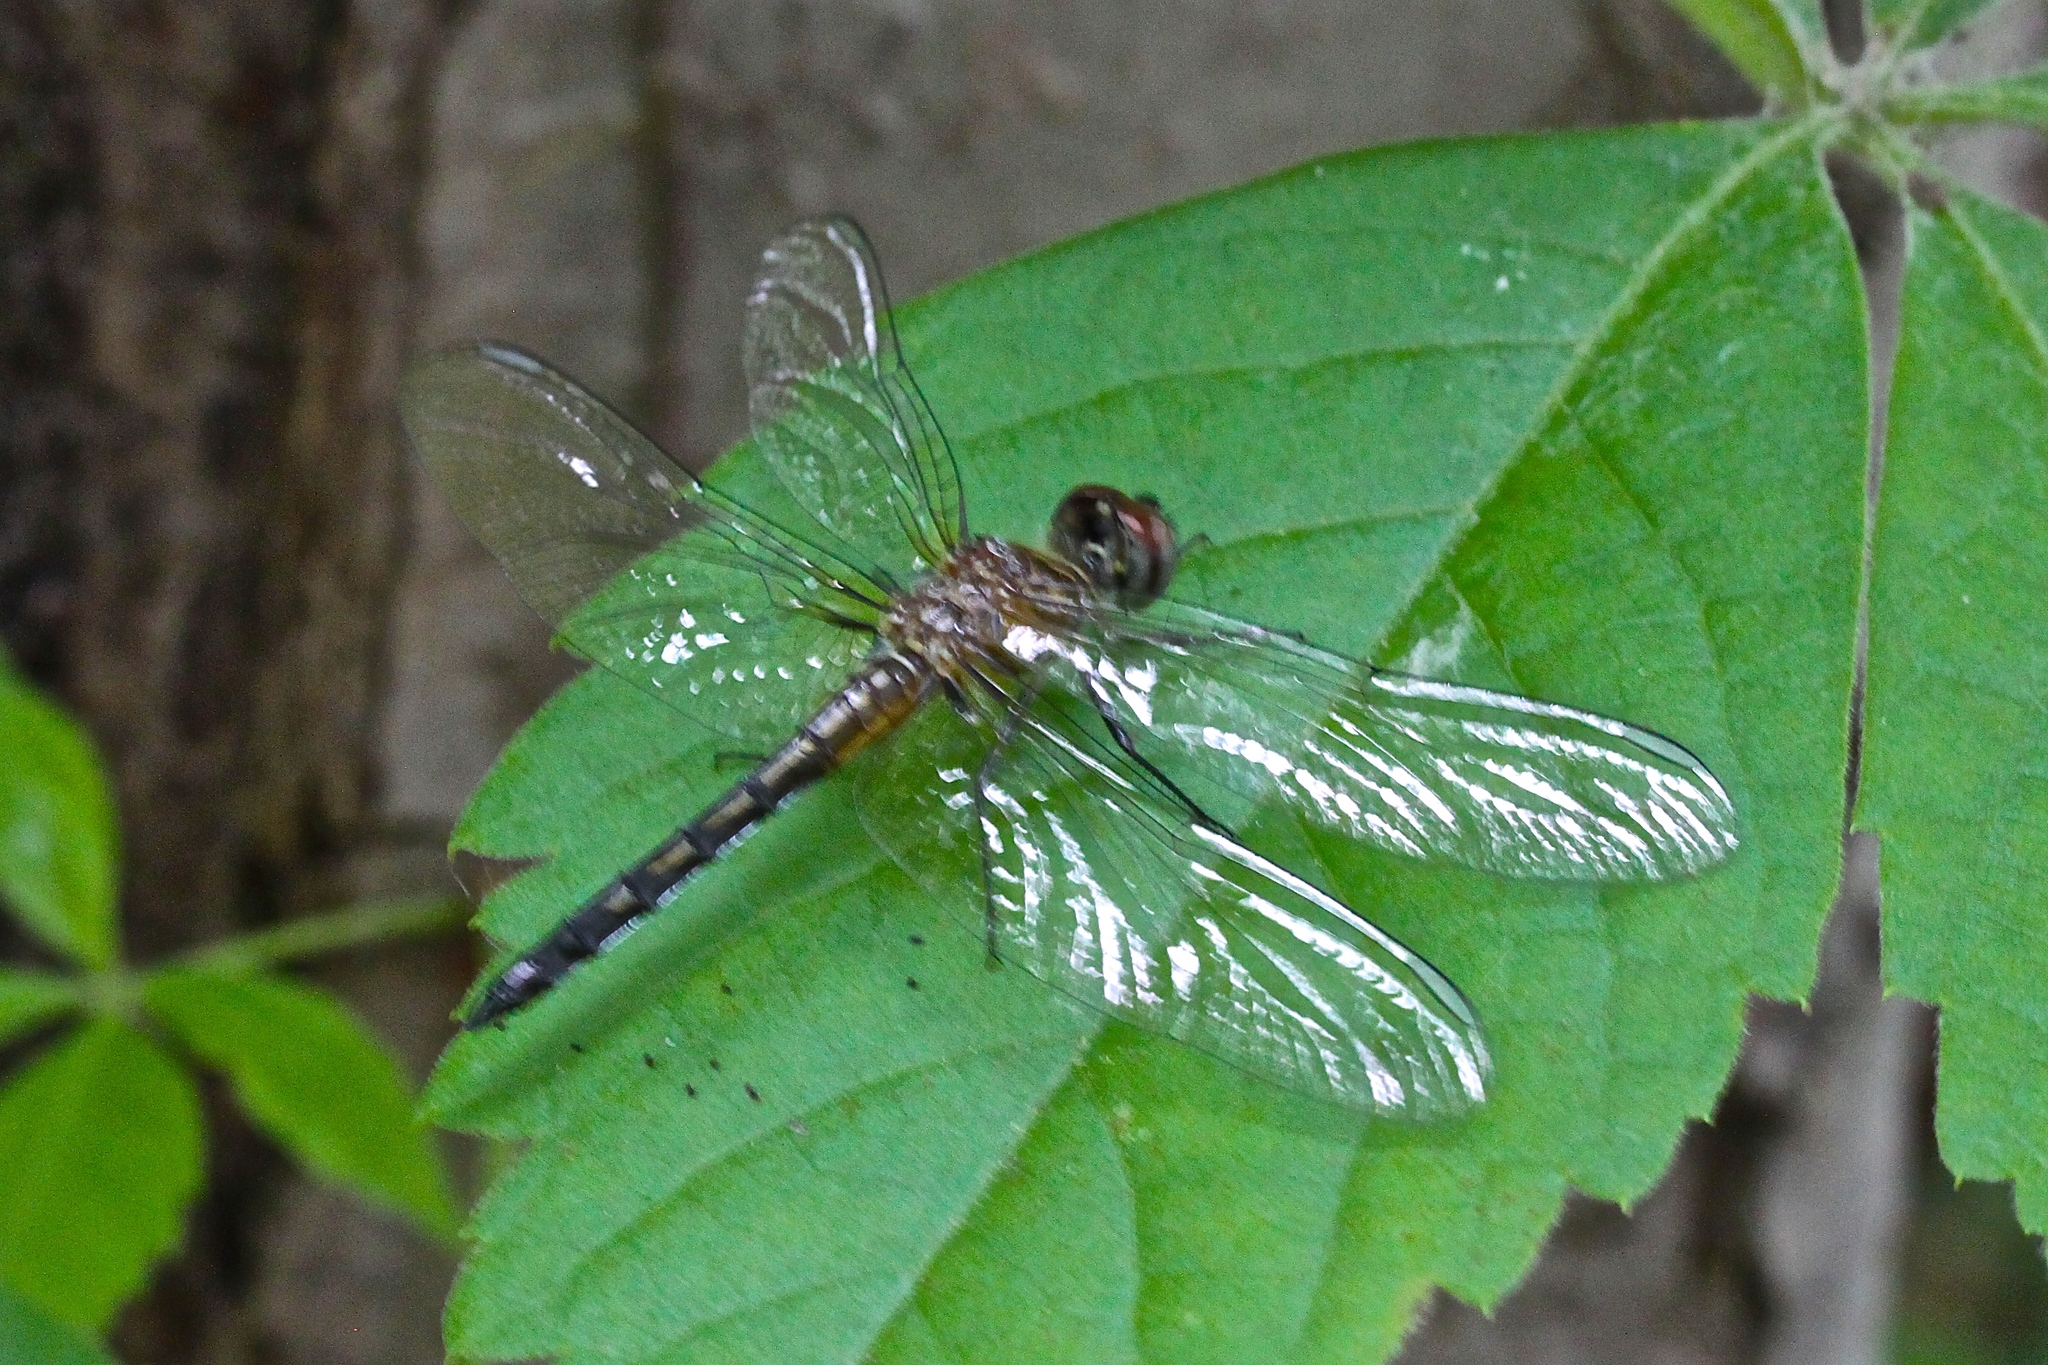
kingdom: Animalia
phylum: Arthropoda
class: Insecta
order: Odonata
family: Libellulidae
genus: Pachydiplax
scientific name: Pachydiplax longipennis
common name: Blue dasher
